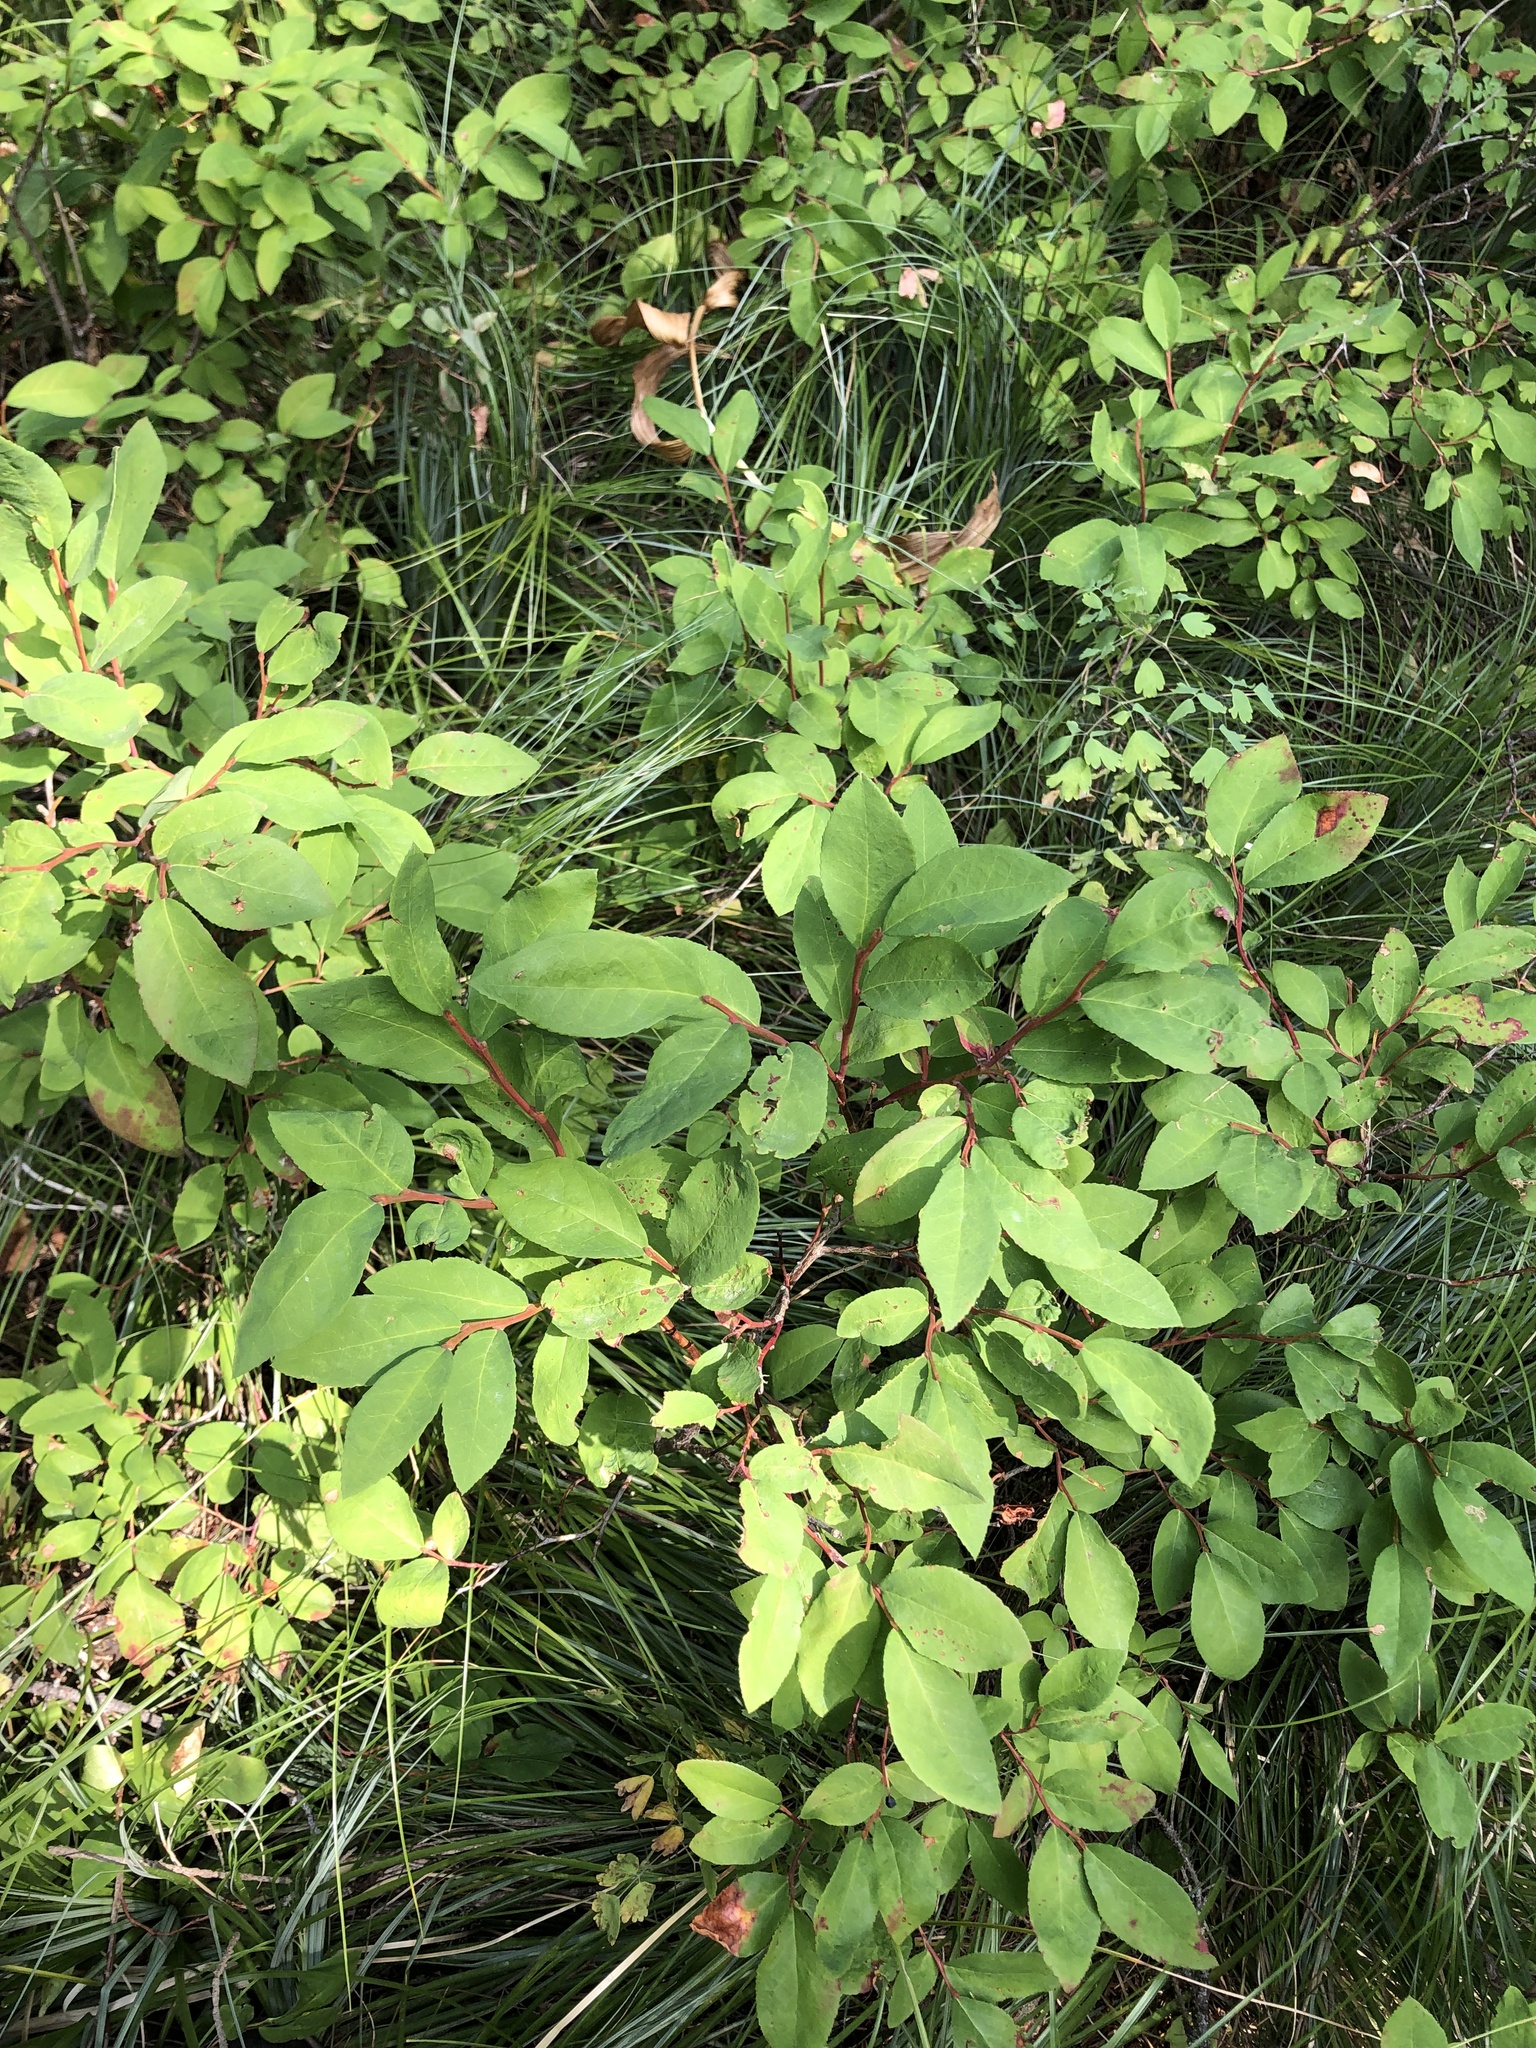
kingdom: Plantae
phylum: Tracheophyta
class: Magnoliopsida
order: Ericales
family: Ericaceae
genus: Vaccinium
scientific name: Vaccinium membranaceum
